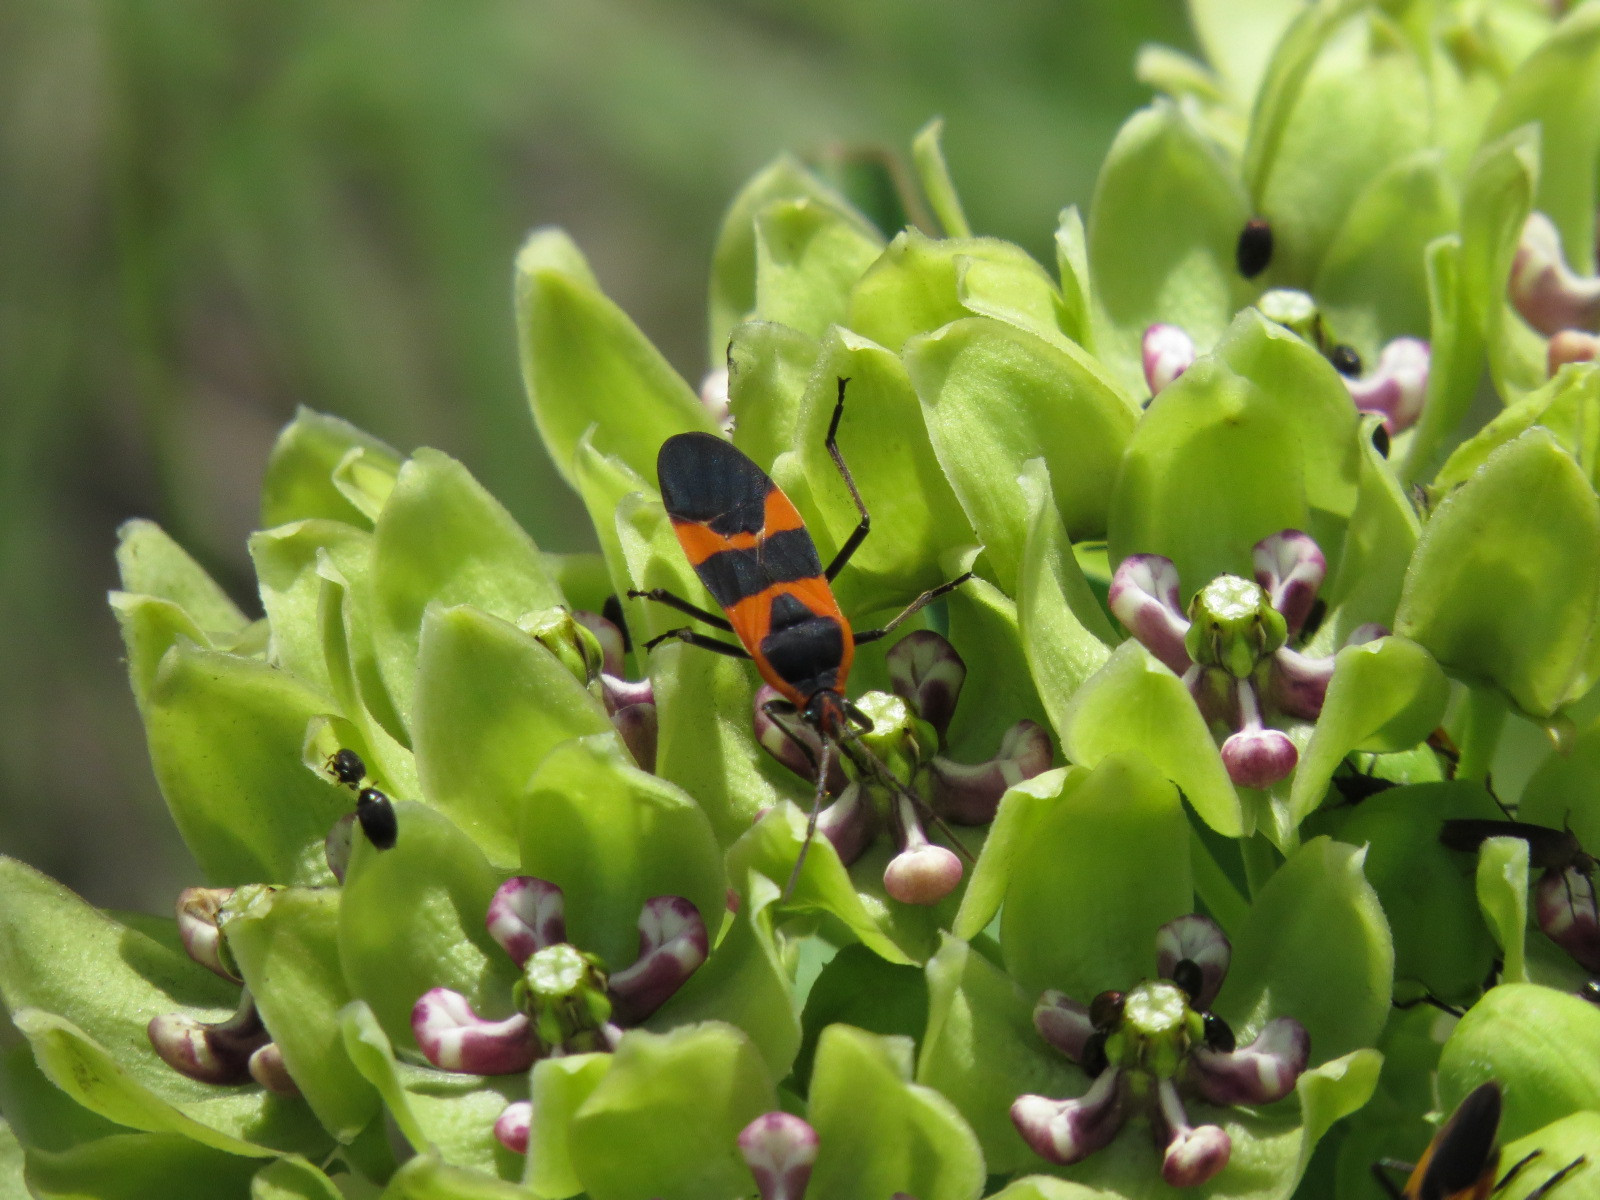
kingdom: Animalia
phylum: Arthropoda
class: Insecta
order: Hemiptera
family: Lygaeidae
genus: Oncopeltus
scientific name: Oncopeltus fasciatus
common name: Large milkweed bug
